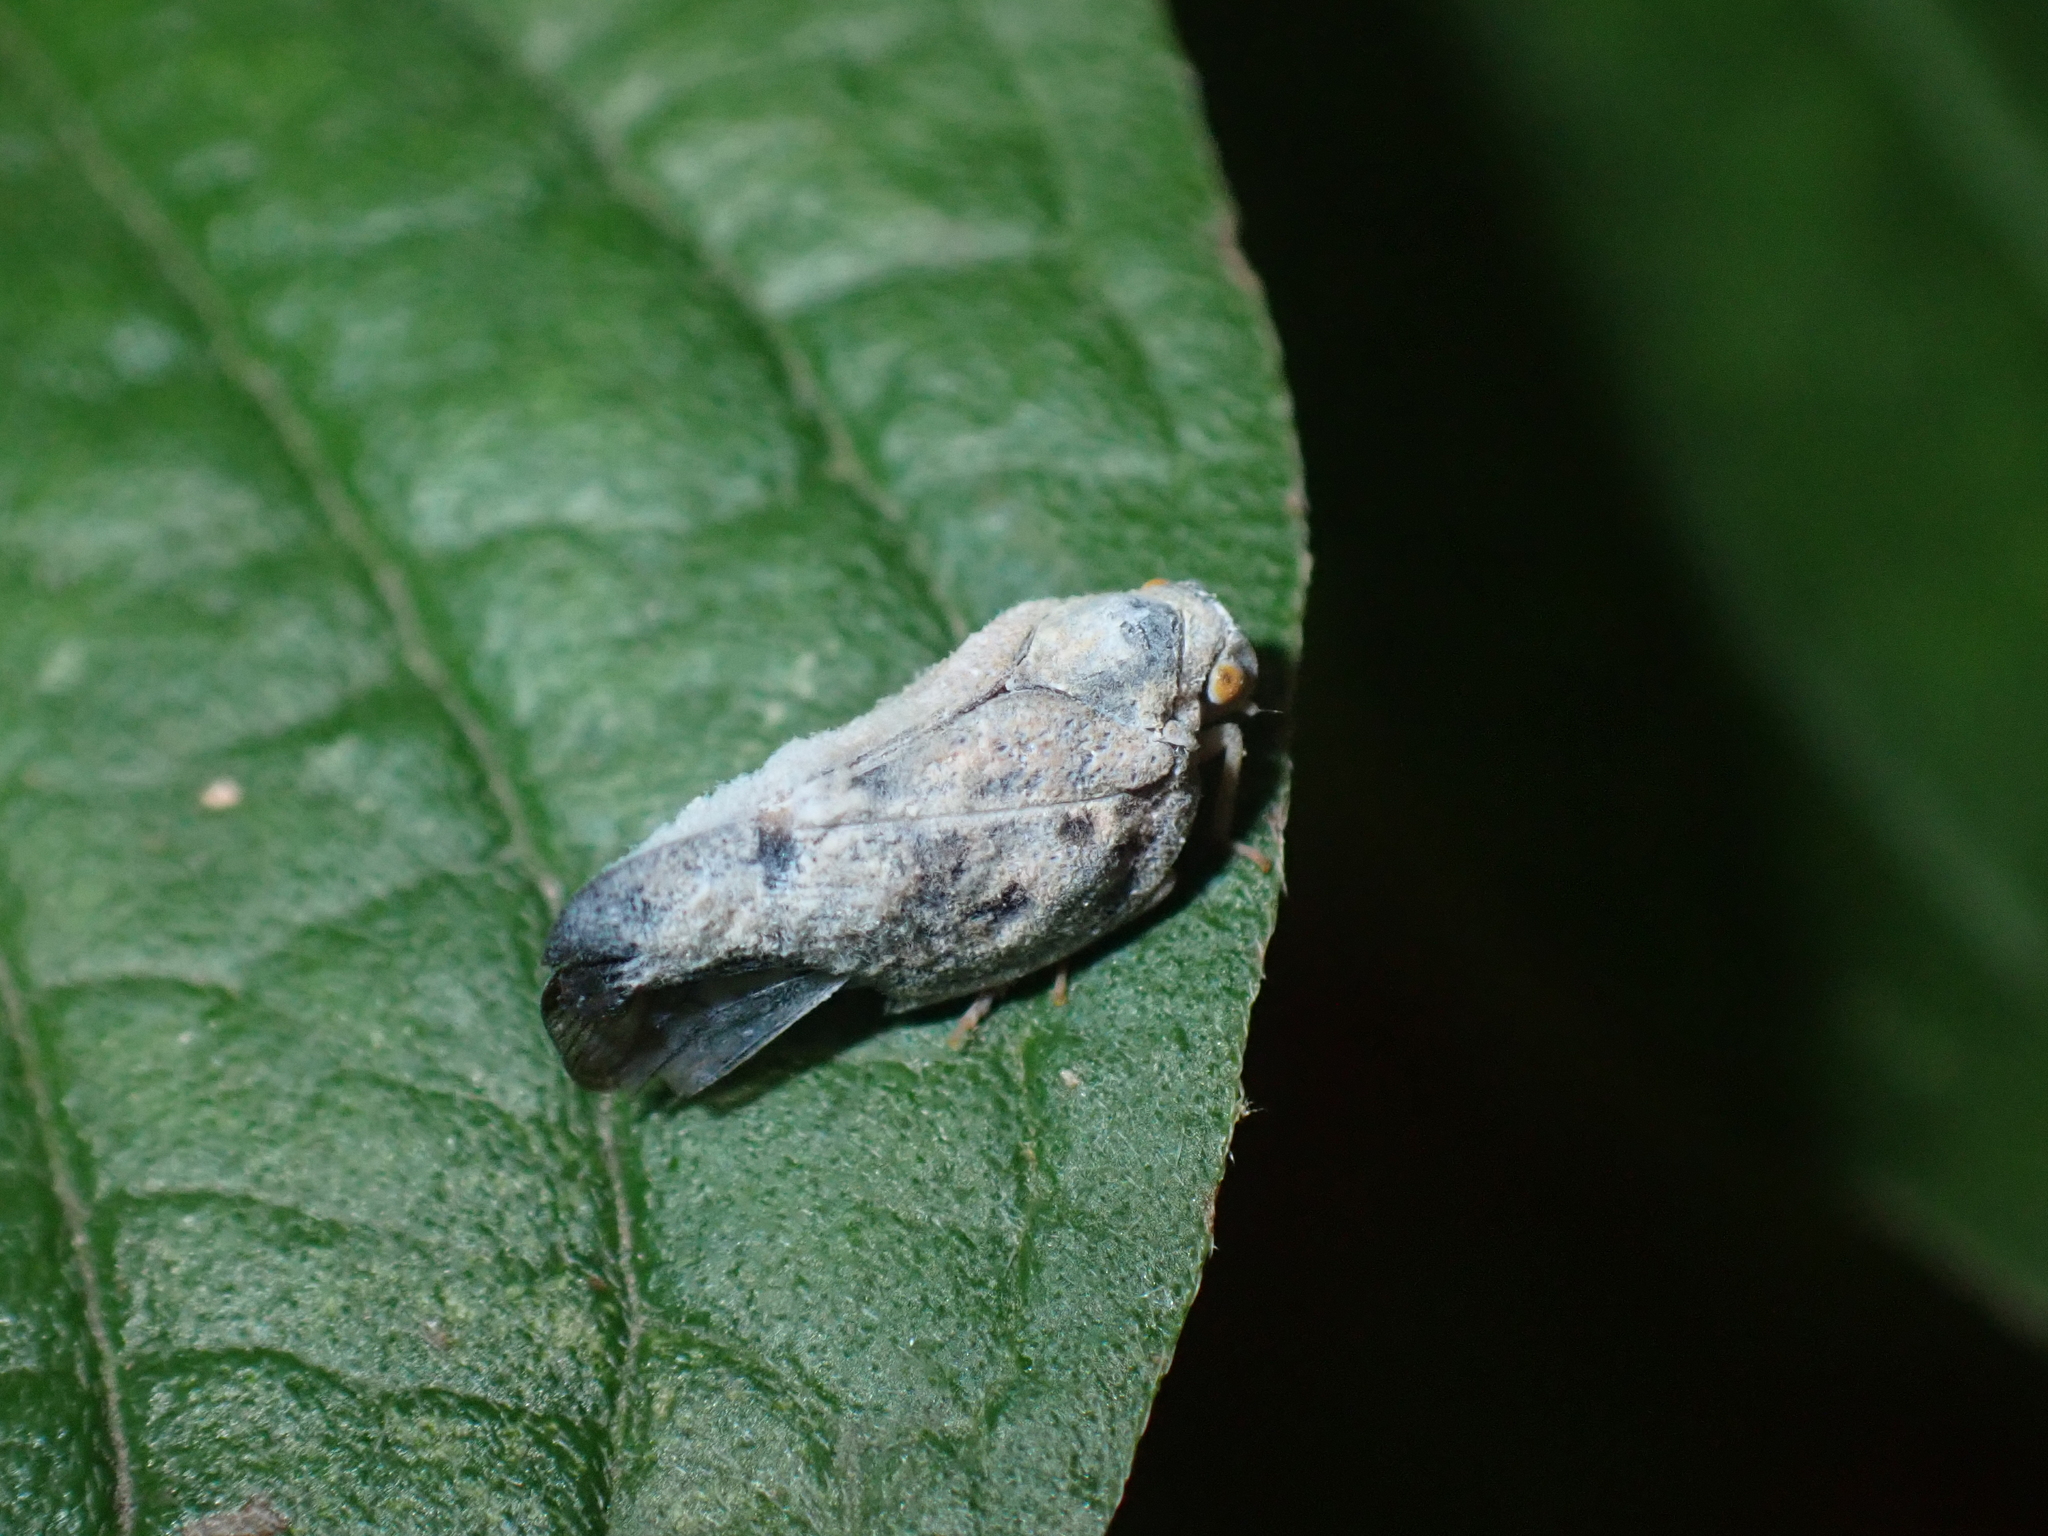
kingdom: Animalia
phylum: Arthropoda
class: Insecta
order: Hemiptera
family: Flatidae
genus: Metcalfa
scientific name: Metcalfa pruinosa
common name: Citrus flatid planthopper
